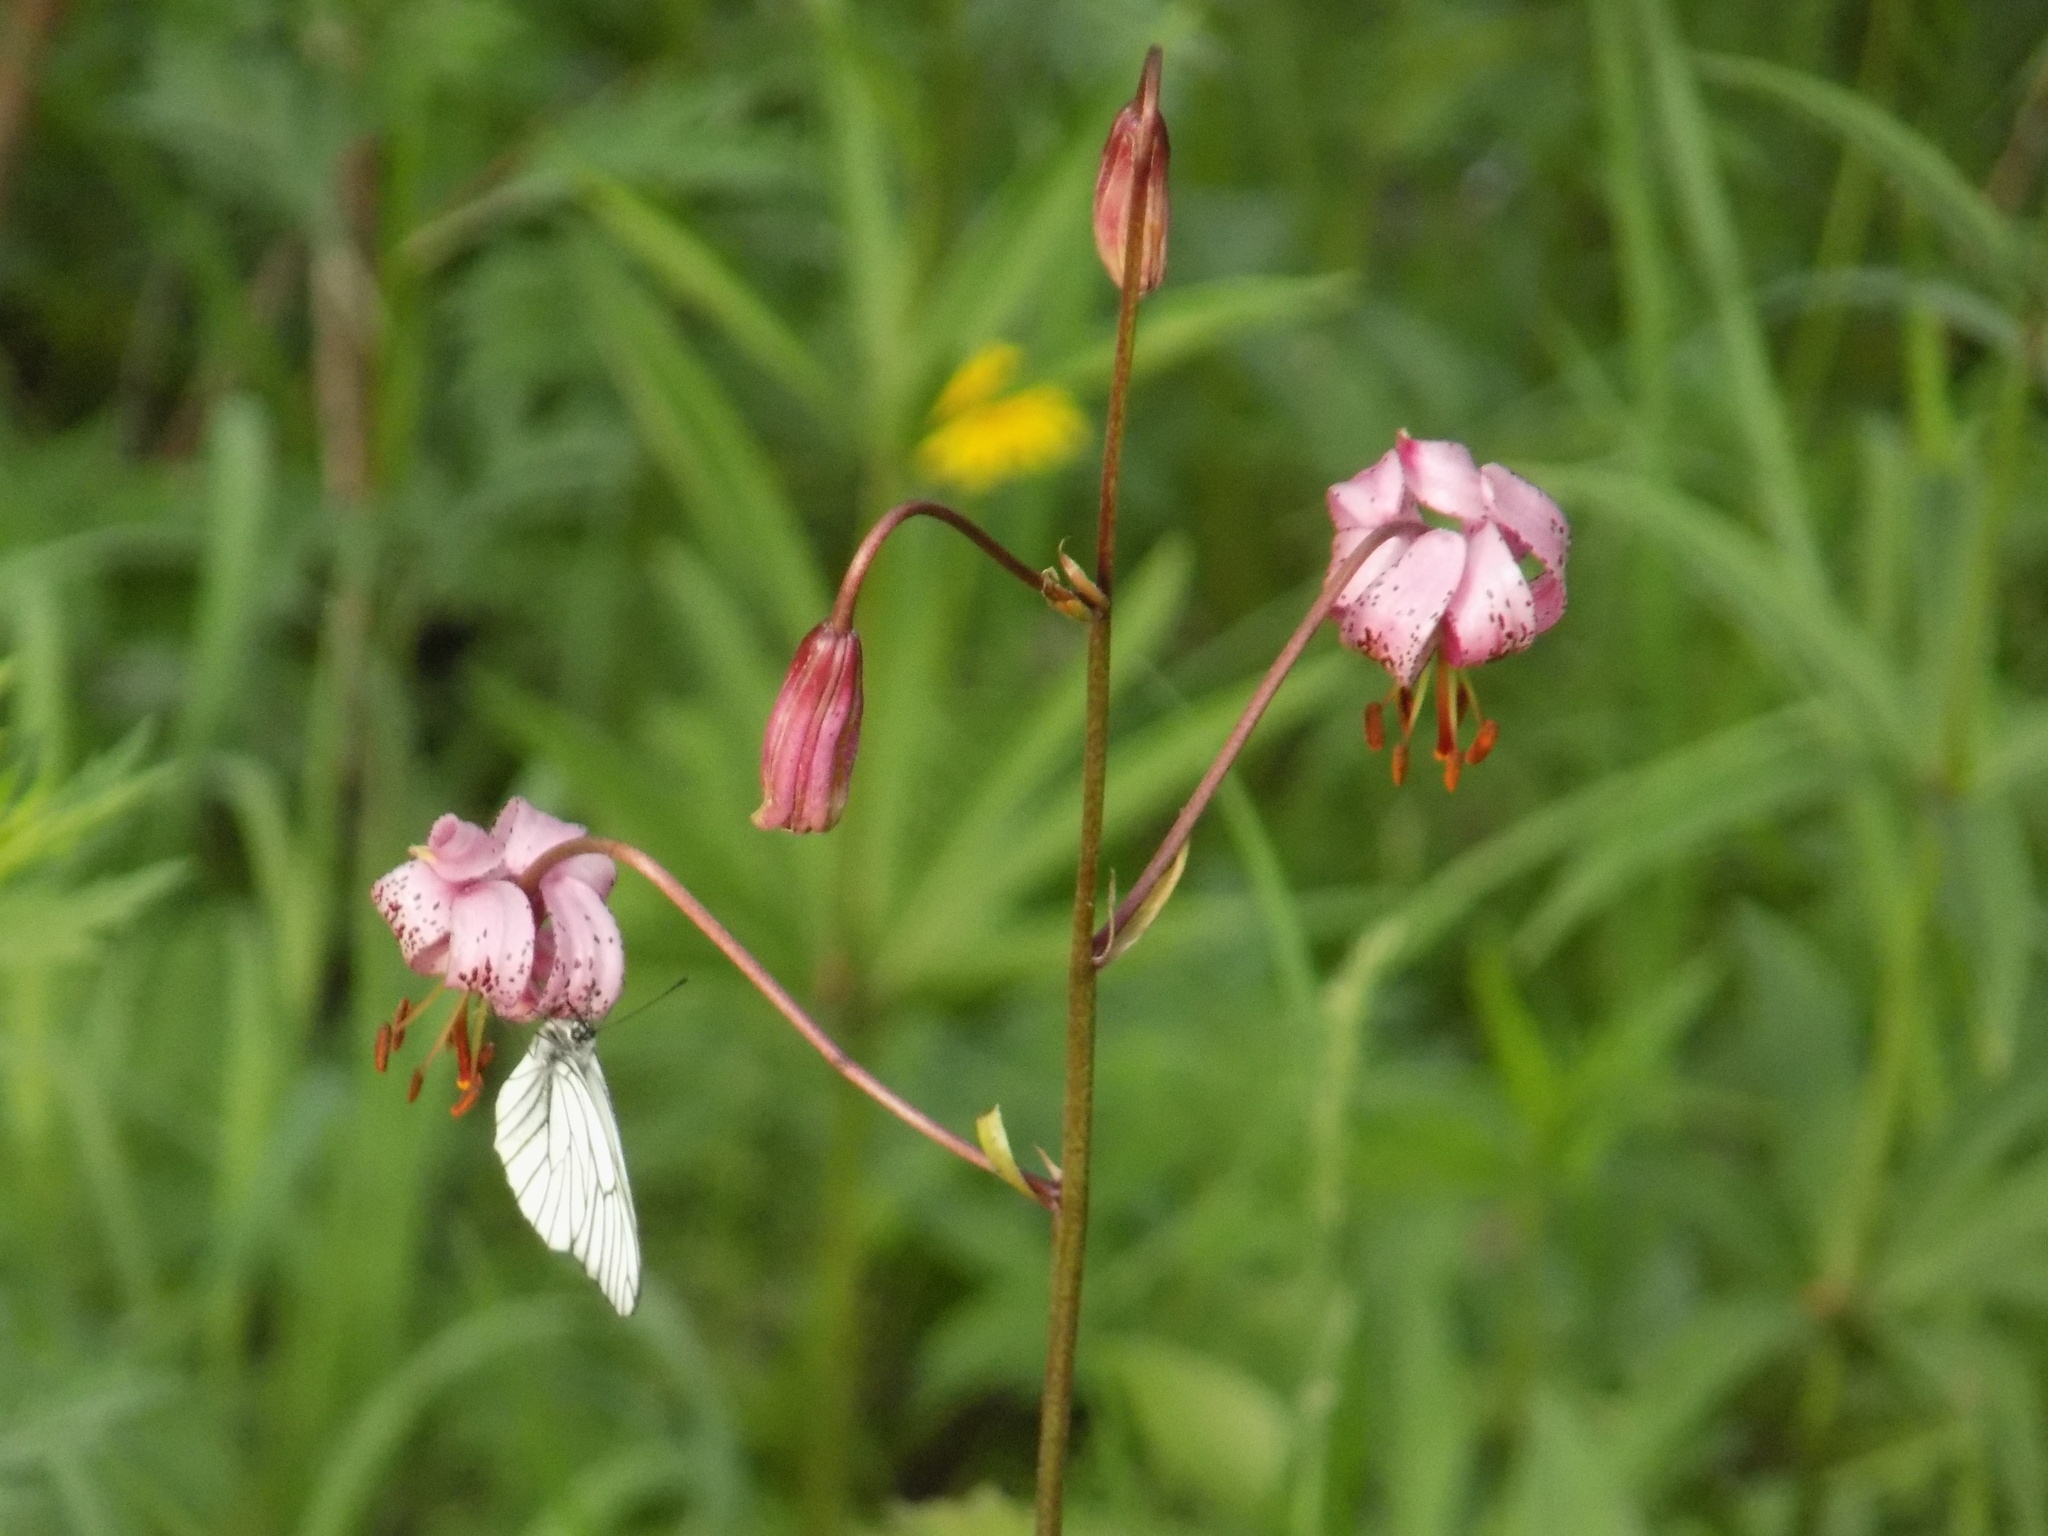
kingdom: Plantae
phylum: Tracheophyta
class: Liliopsida
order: Liliales
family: Liliaceae
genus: Lilium
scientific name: Lilium martagon
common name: Martagon lily
